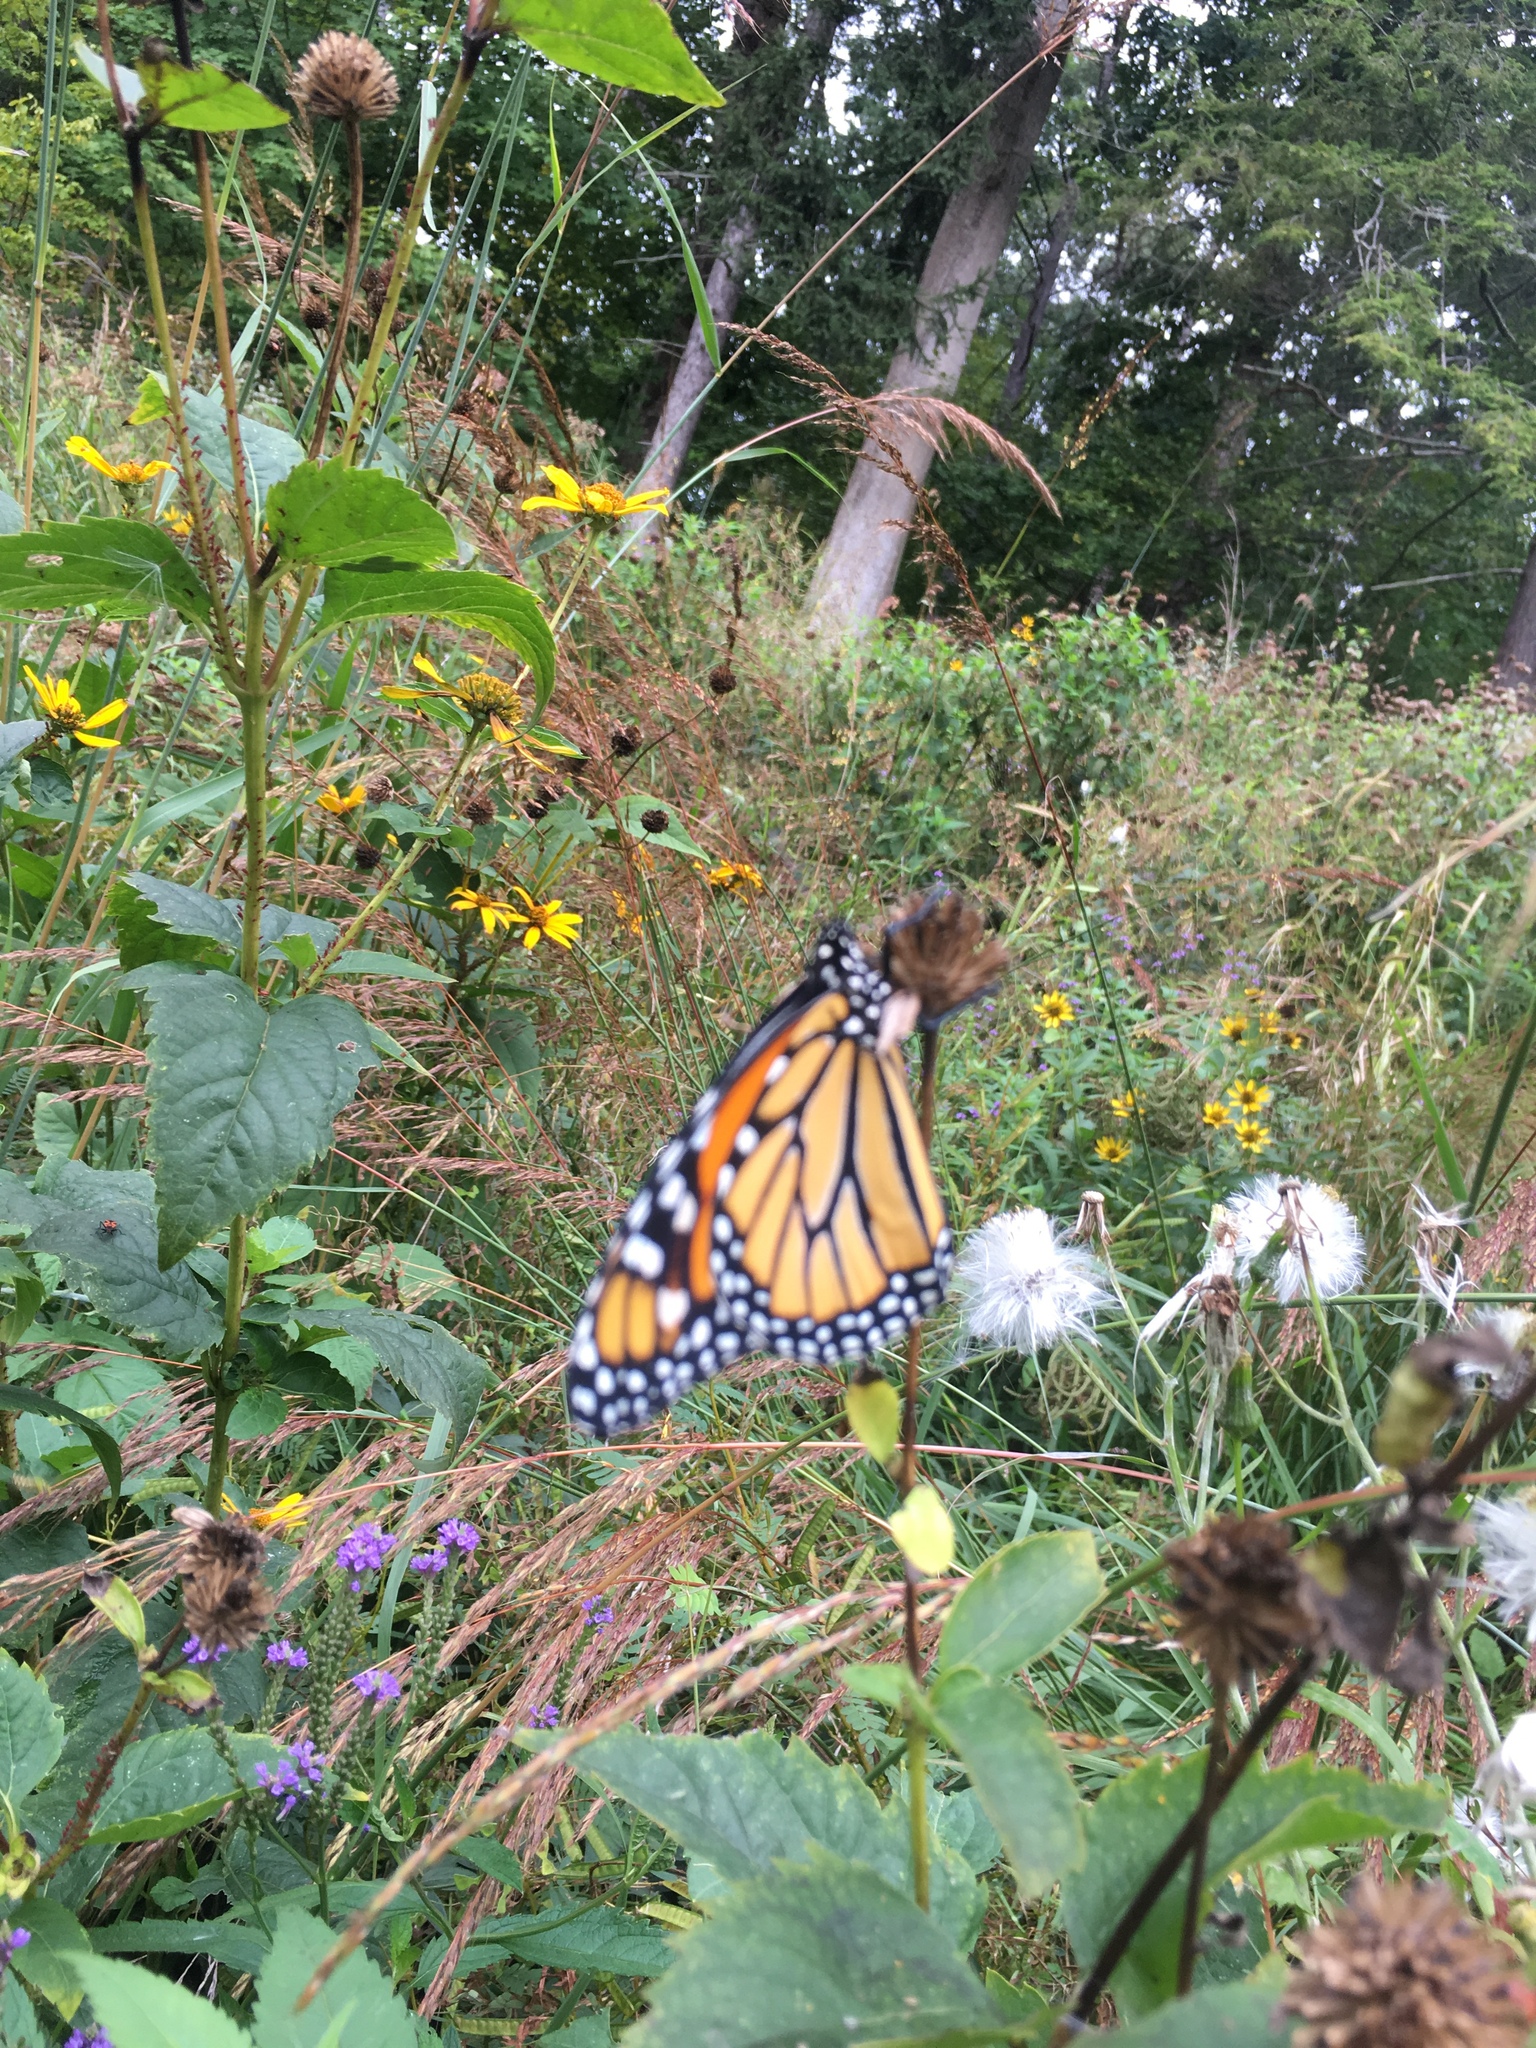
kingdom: Animalia
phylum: Arthropoda
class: Insecta
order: Lepidoptera
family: Nymphalidae
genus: Danaus
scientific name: Danaus plexippus
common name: Monarch
